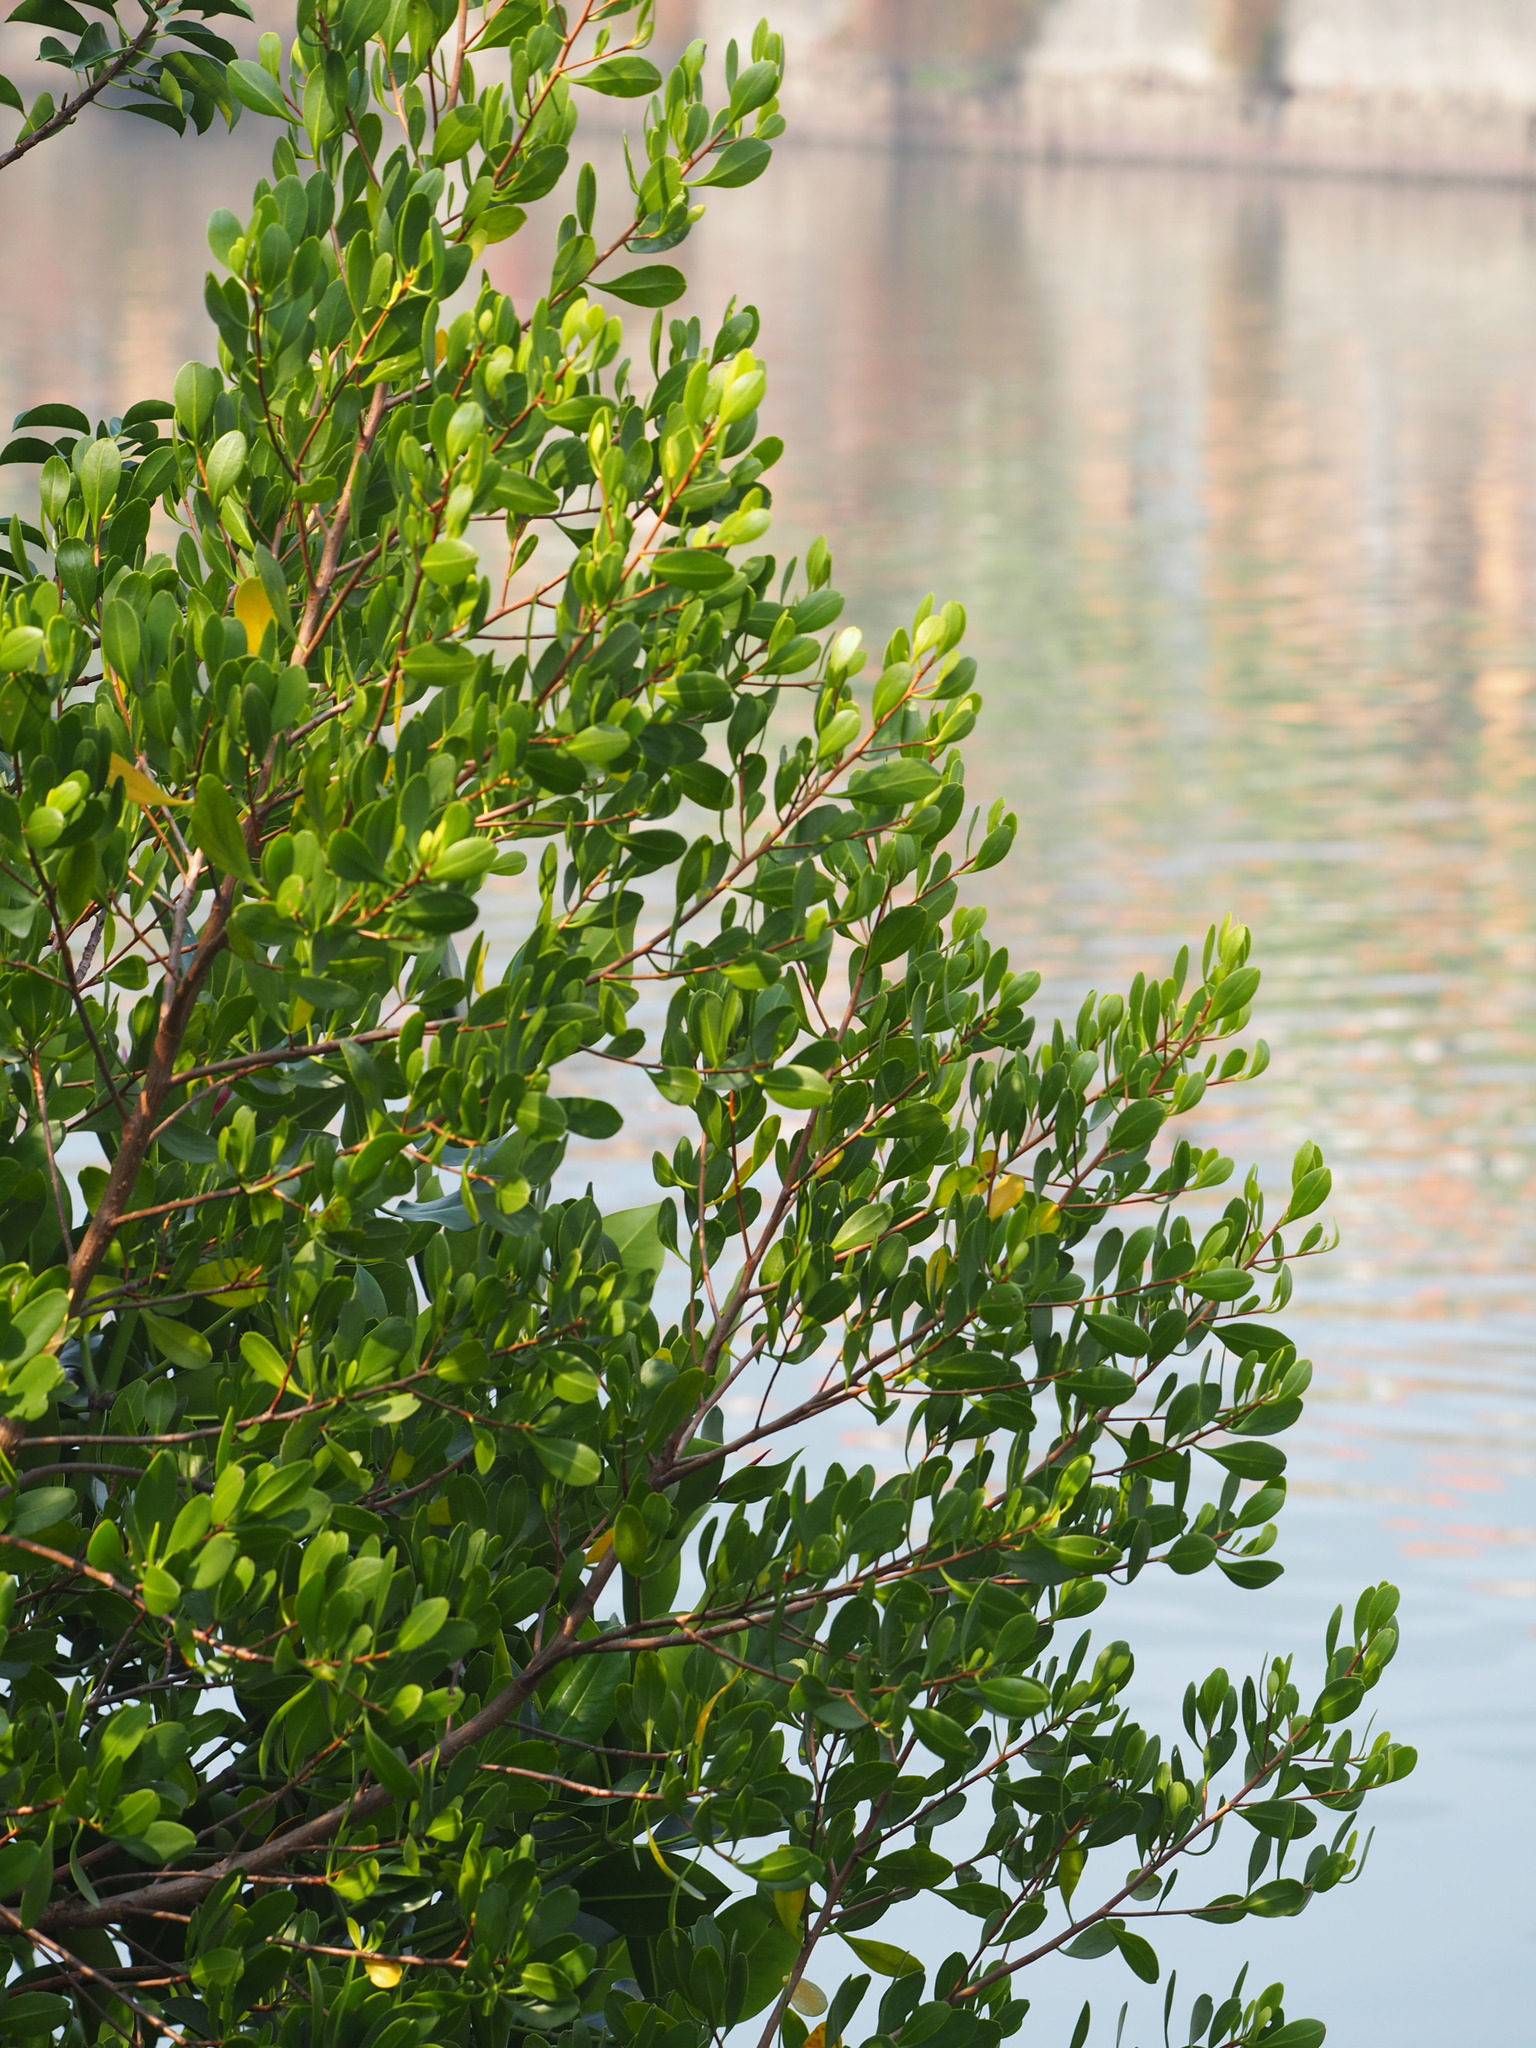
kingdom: Plantae
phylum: Tracheophyta
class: Magnoliopsida
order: Myrtales
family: Combretaceae
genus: Lumnitzera
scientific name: Lumnitzera racemosa
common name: White-flowered black mangrove
